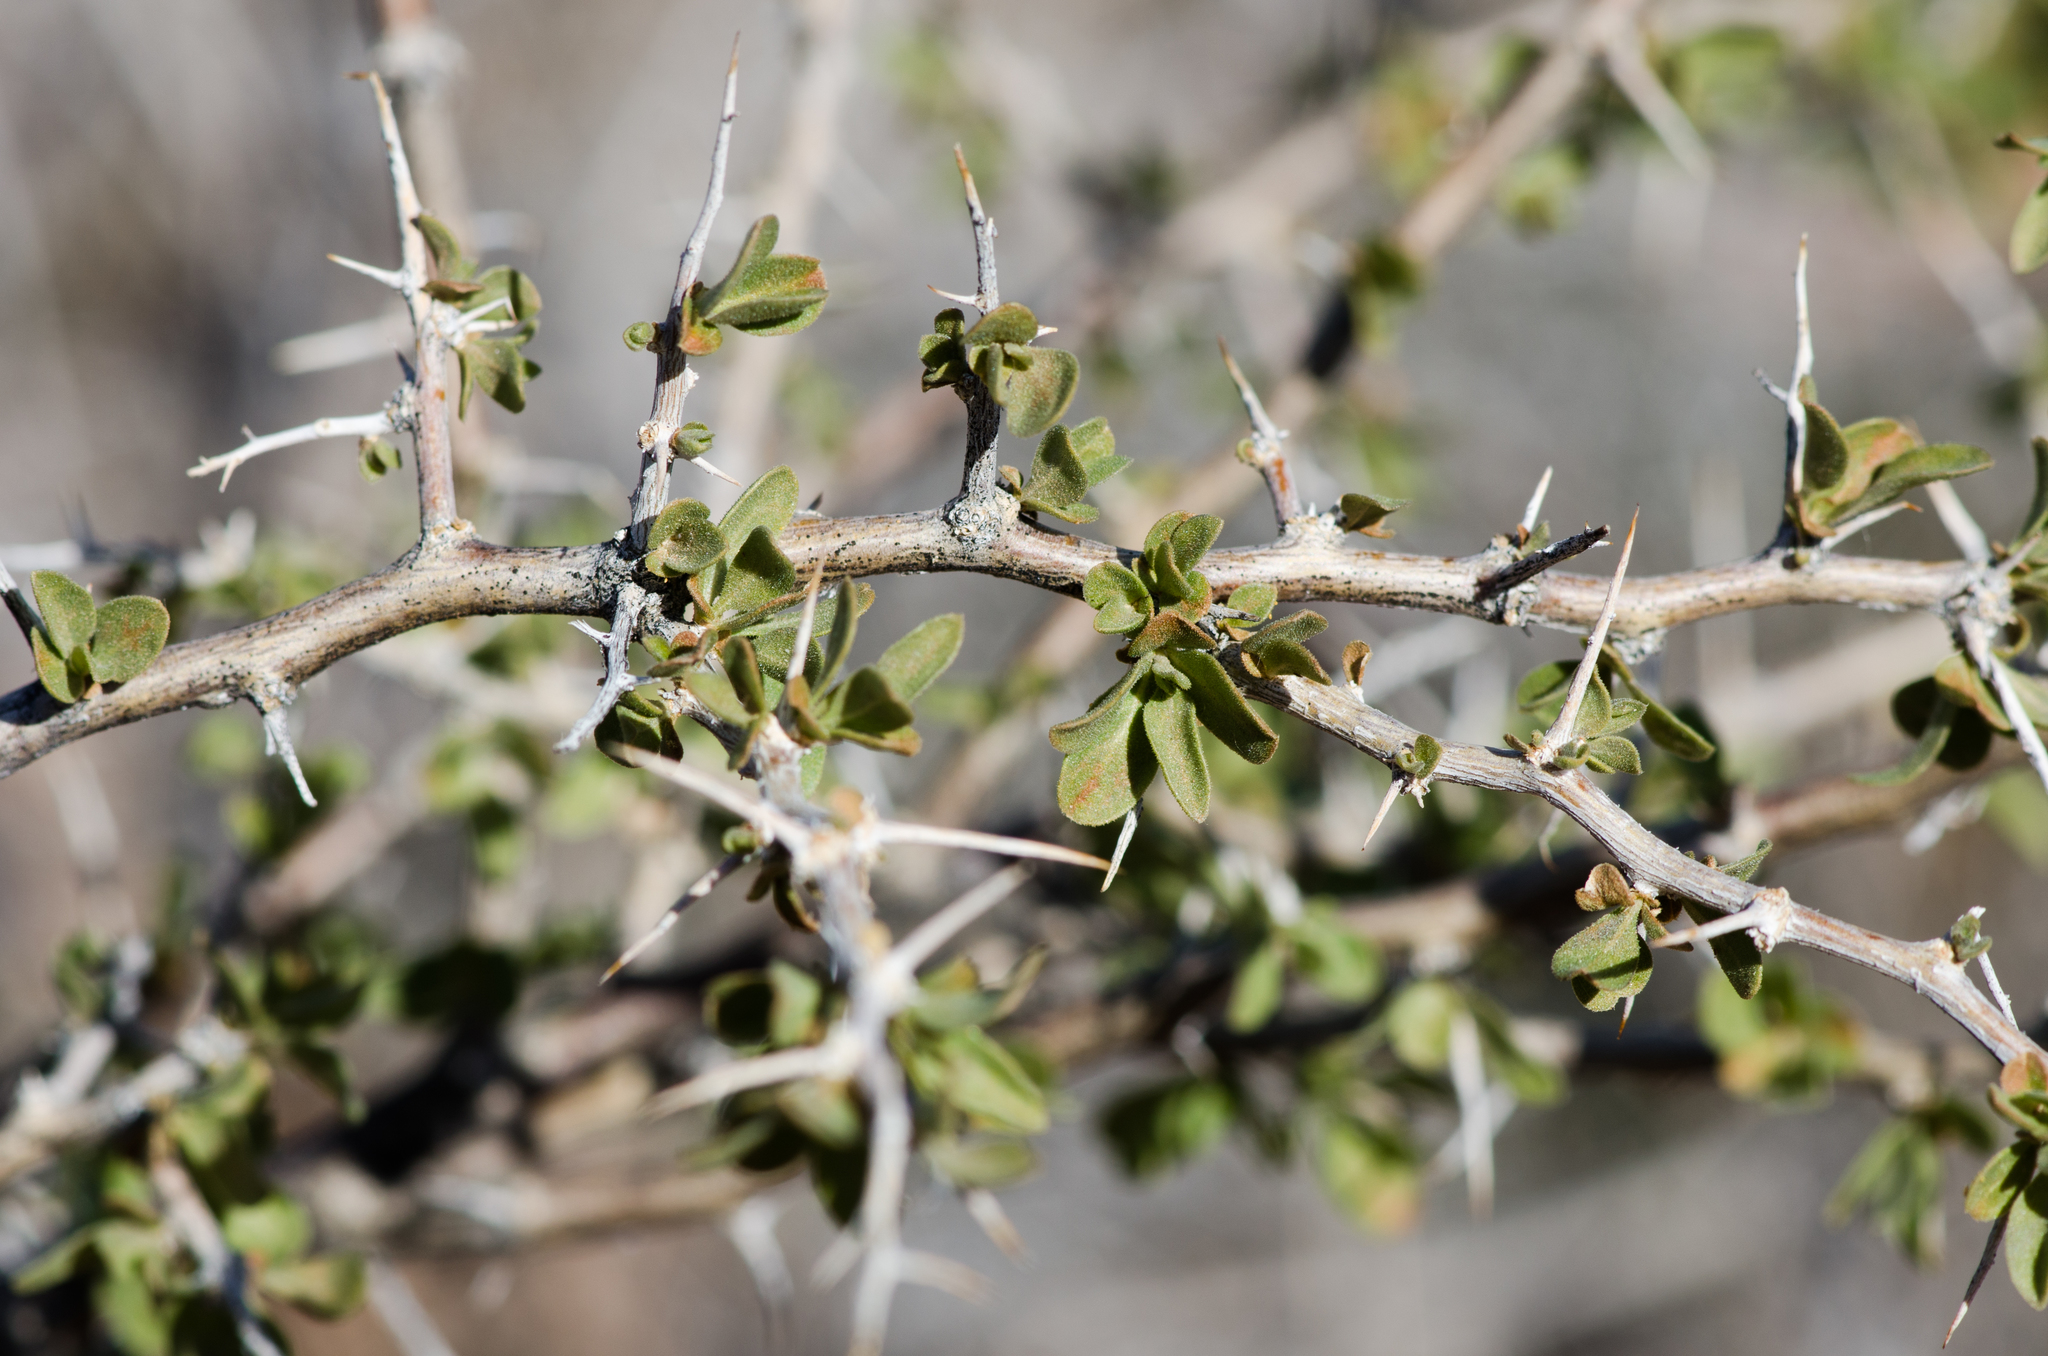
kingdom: Plantae
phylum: Tracheophyta
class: Magnoliopsida
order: Solanales
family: Solanaceae
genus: Lycium
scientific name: Lycium cooperi
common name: Peachthorn
